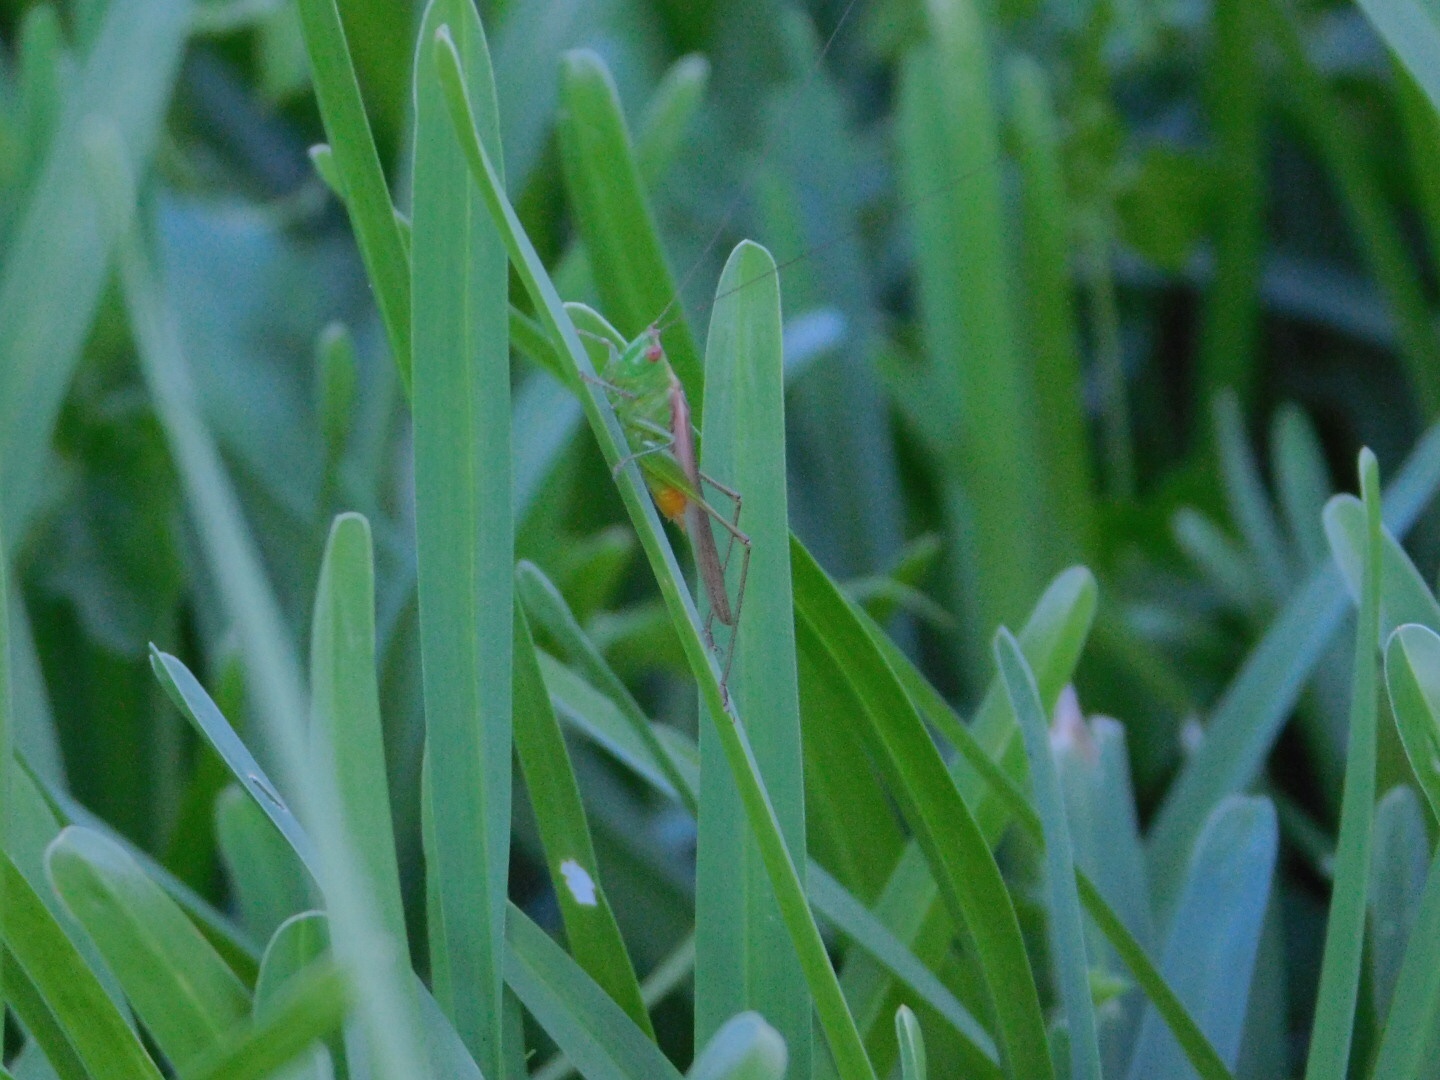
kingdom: Animalia
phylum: Arthropoda
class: Insecta
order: Orthoptera
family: Tettigoniidae
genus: Conocephalus
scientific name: Conocephalus cinereus
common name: Caribbean meadow katydid
